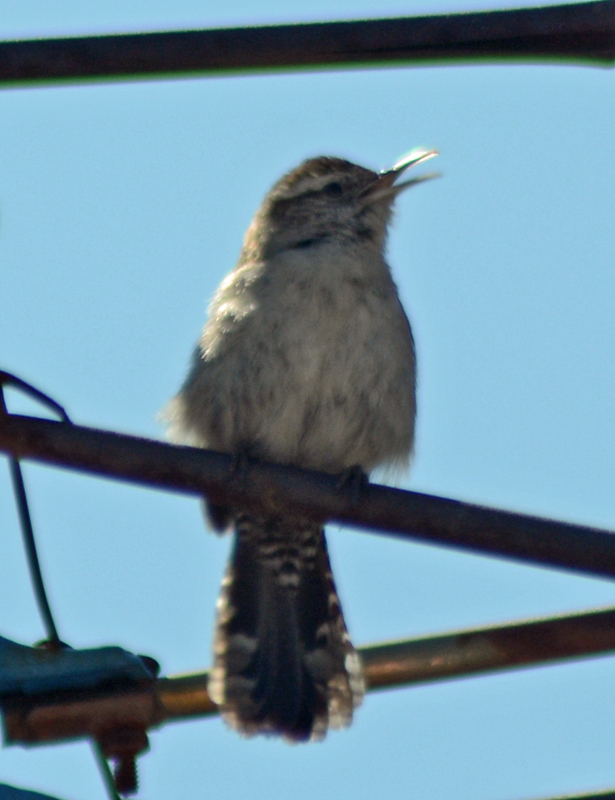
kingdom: Animalia
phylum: Chordata
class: Aves
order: Passeriformes
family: Troglodytidae
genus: Thryomanes
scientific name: Thryomanes bewickii
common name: Bewick's wren
